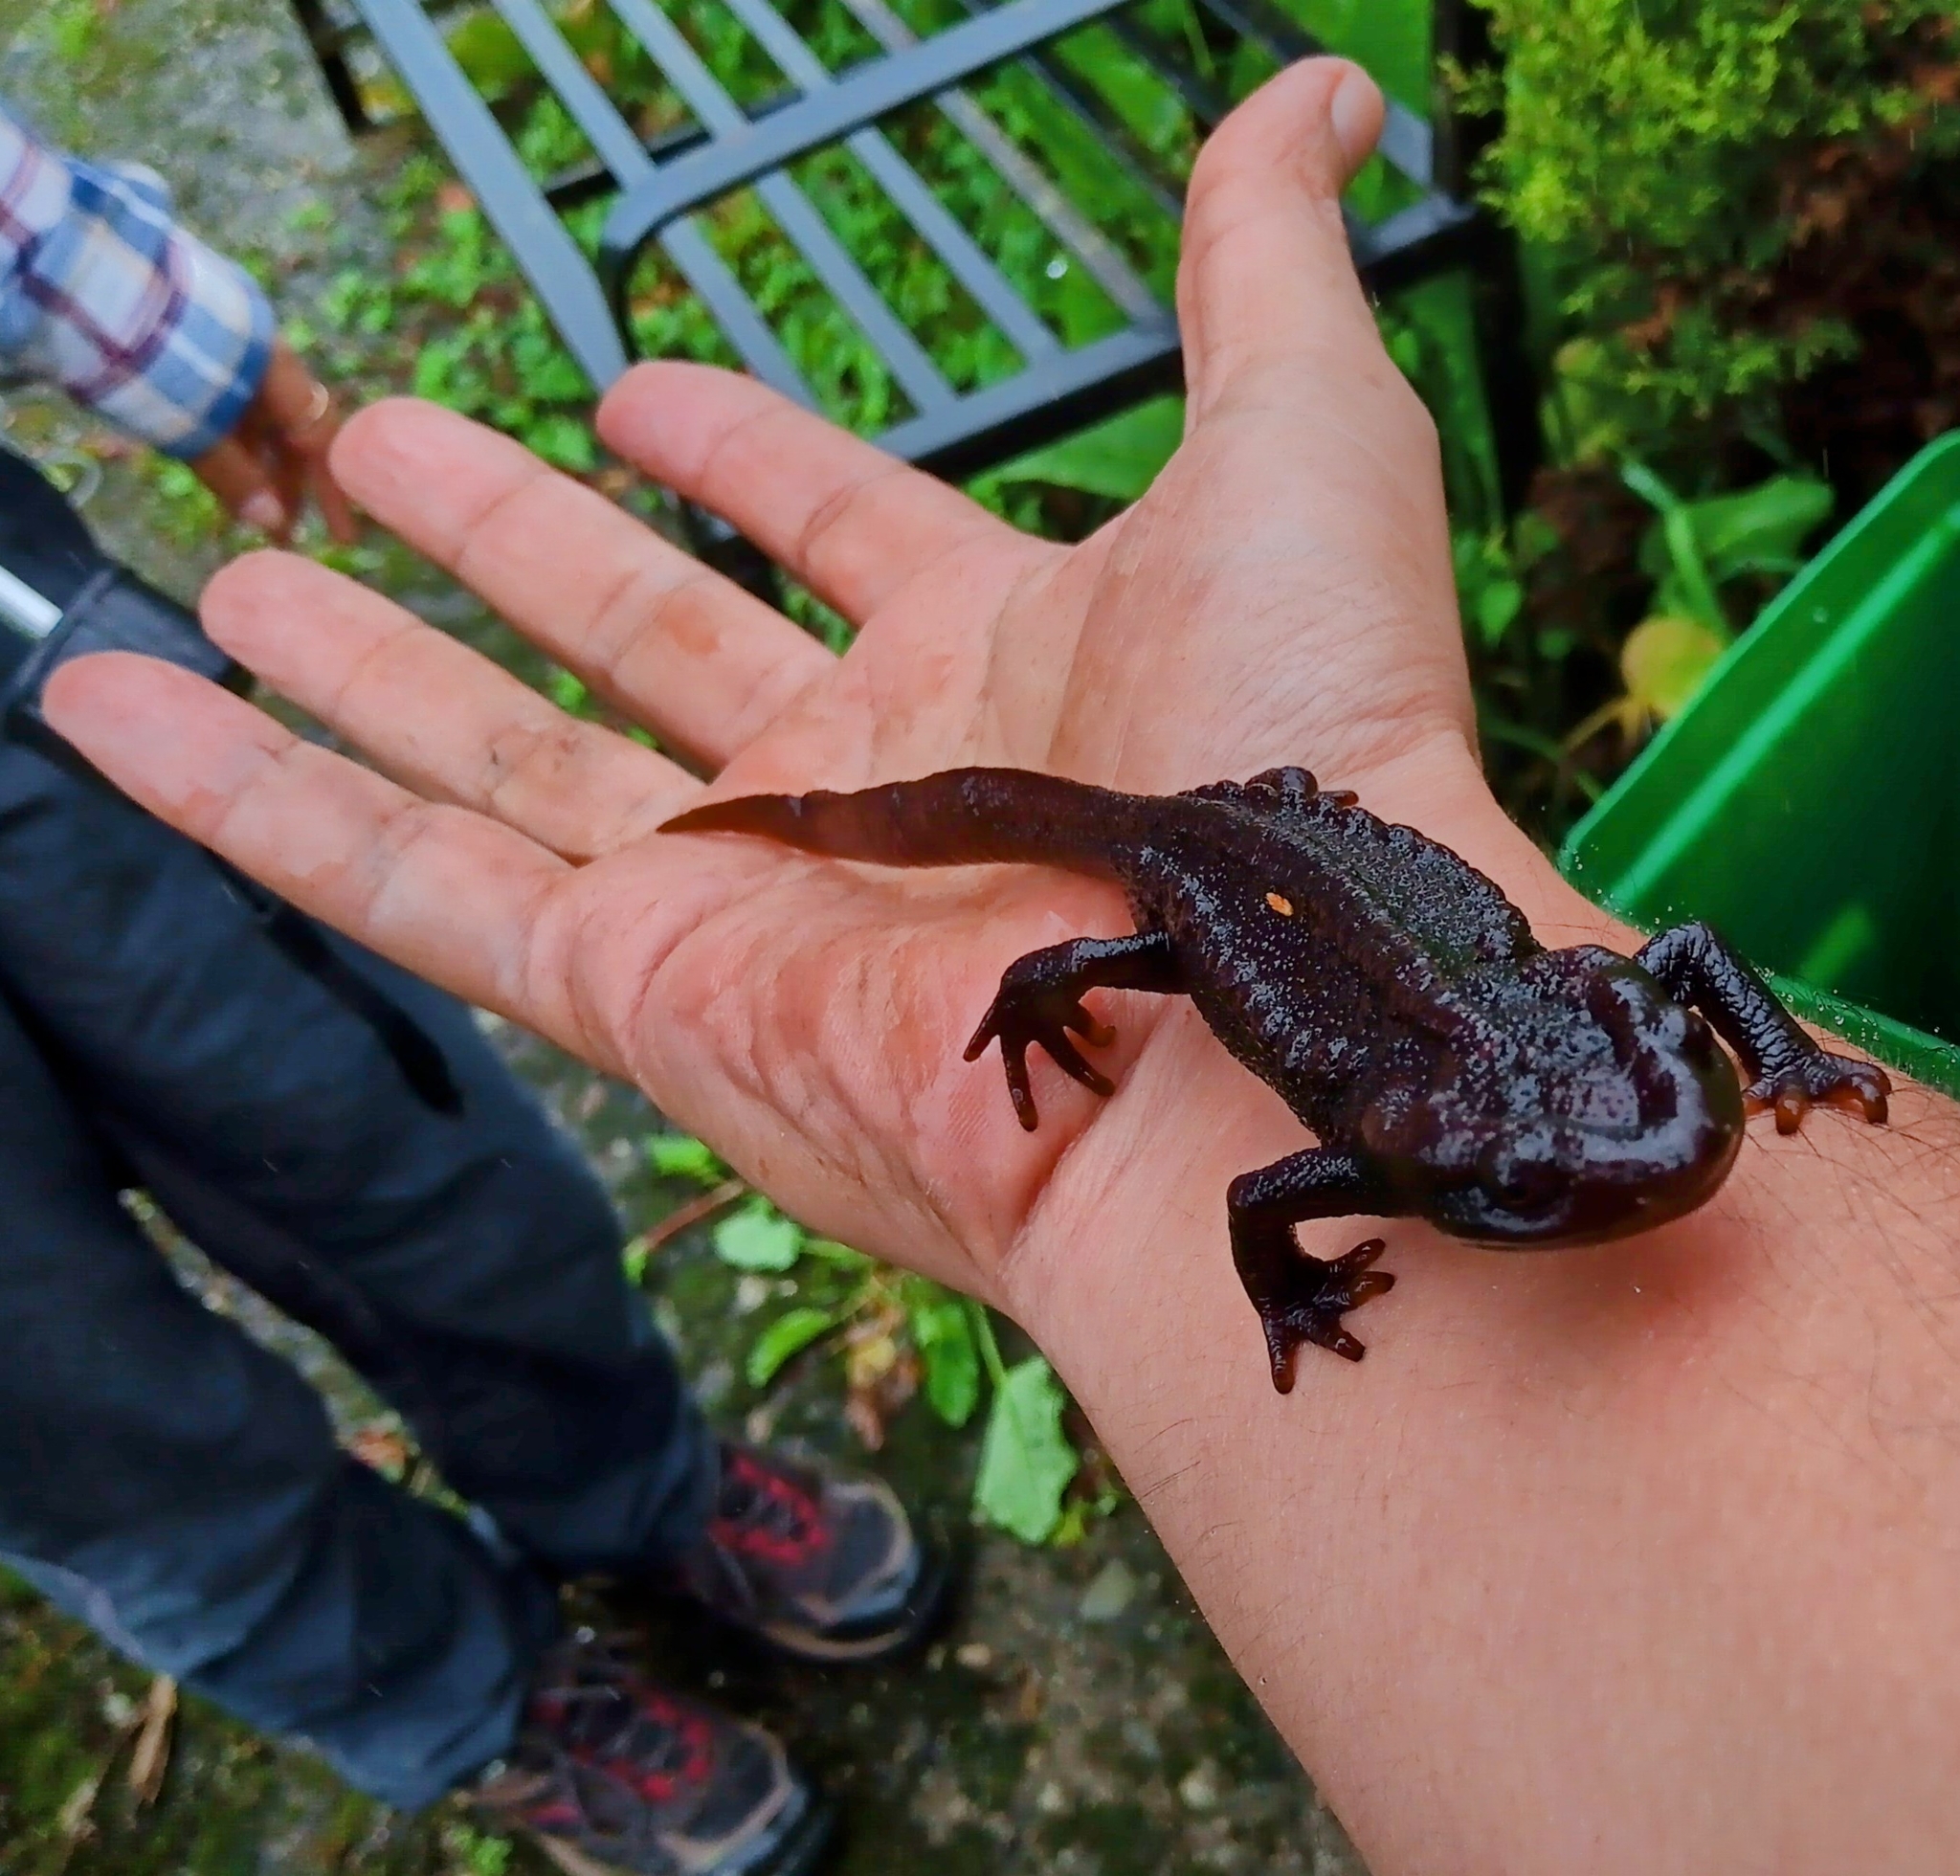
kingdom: Animalia
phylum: Chordata
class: Amphibia
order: Caudata
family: Salamandridae
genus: Tylototriton
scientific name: Tylototriton himalayanus
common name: Himalayan crocodile newt
